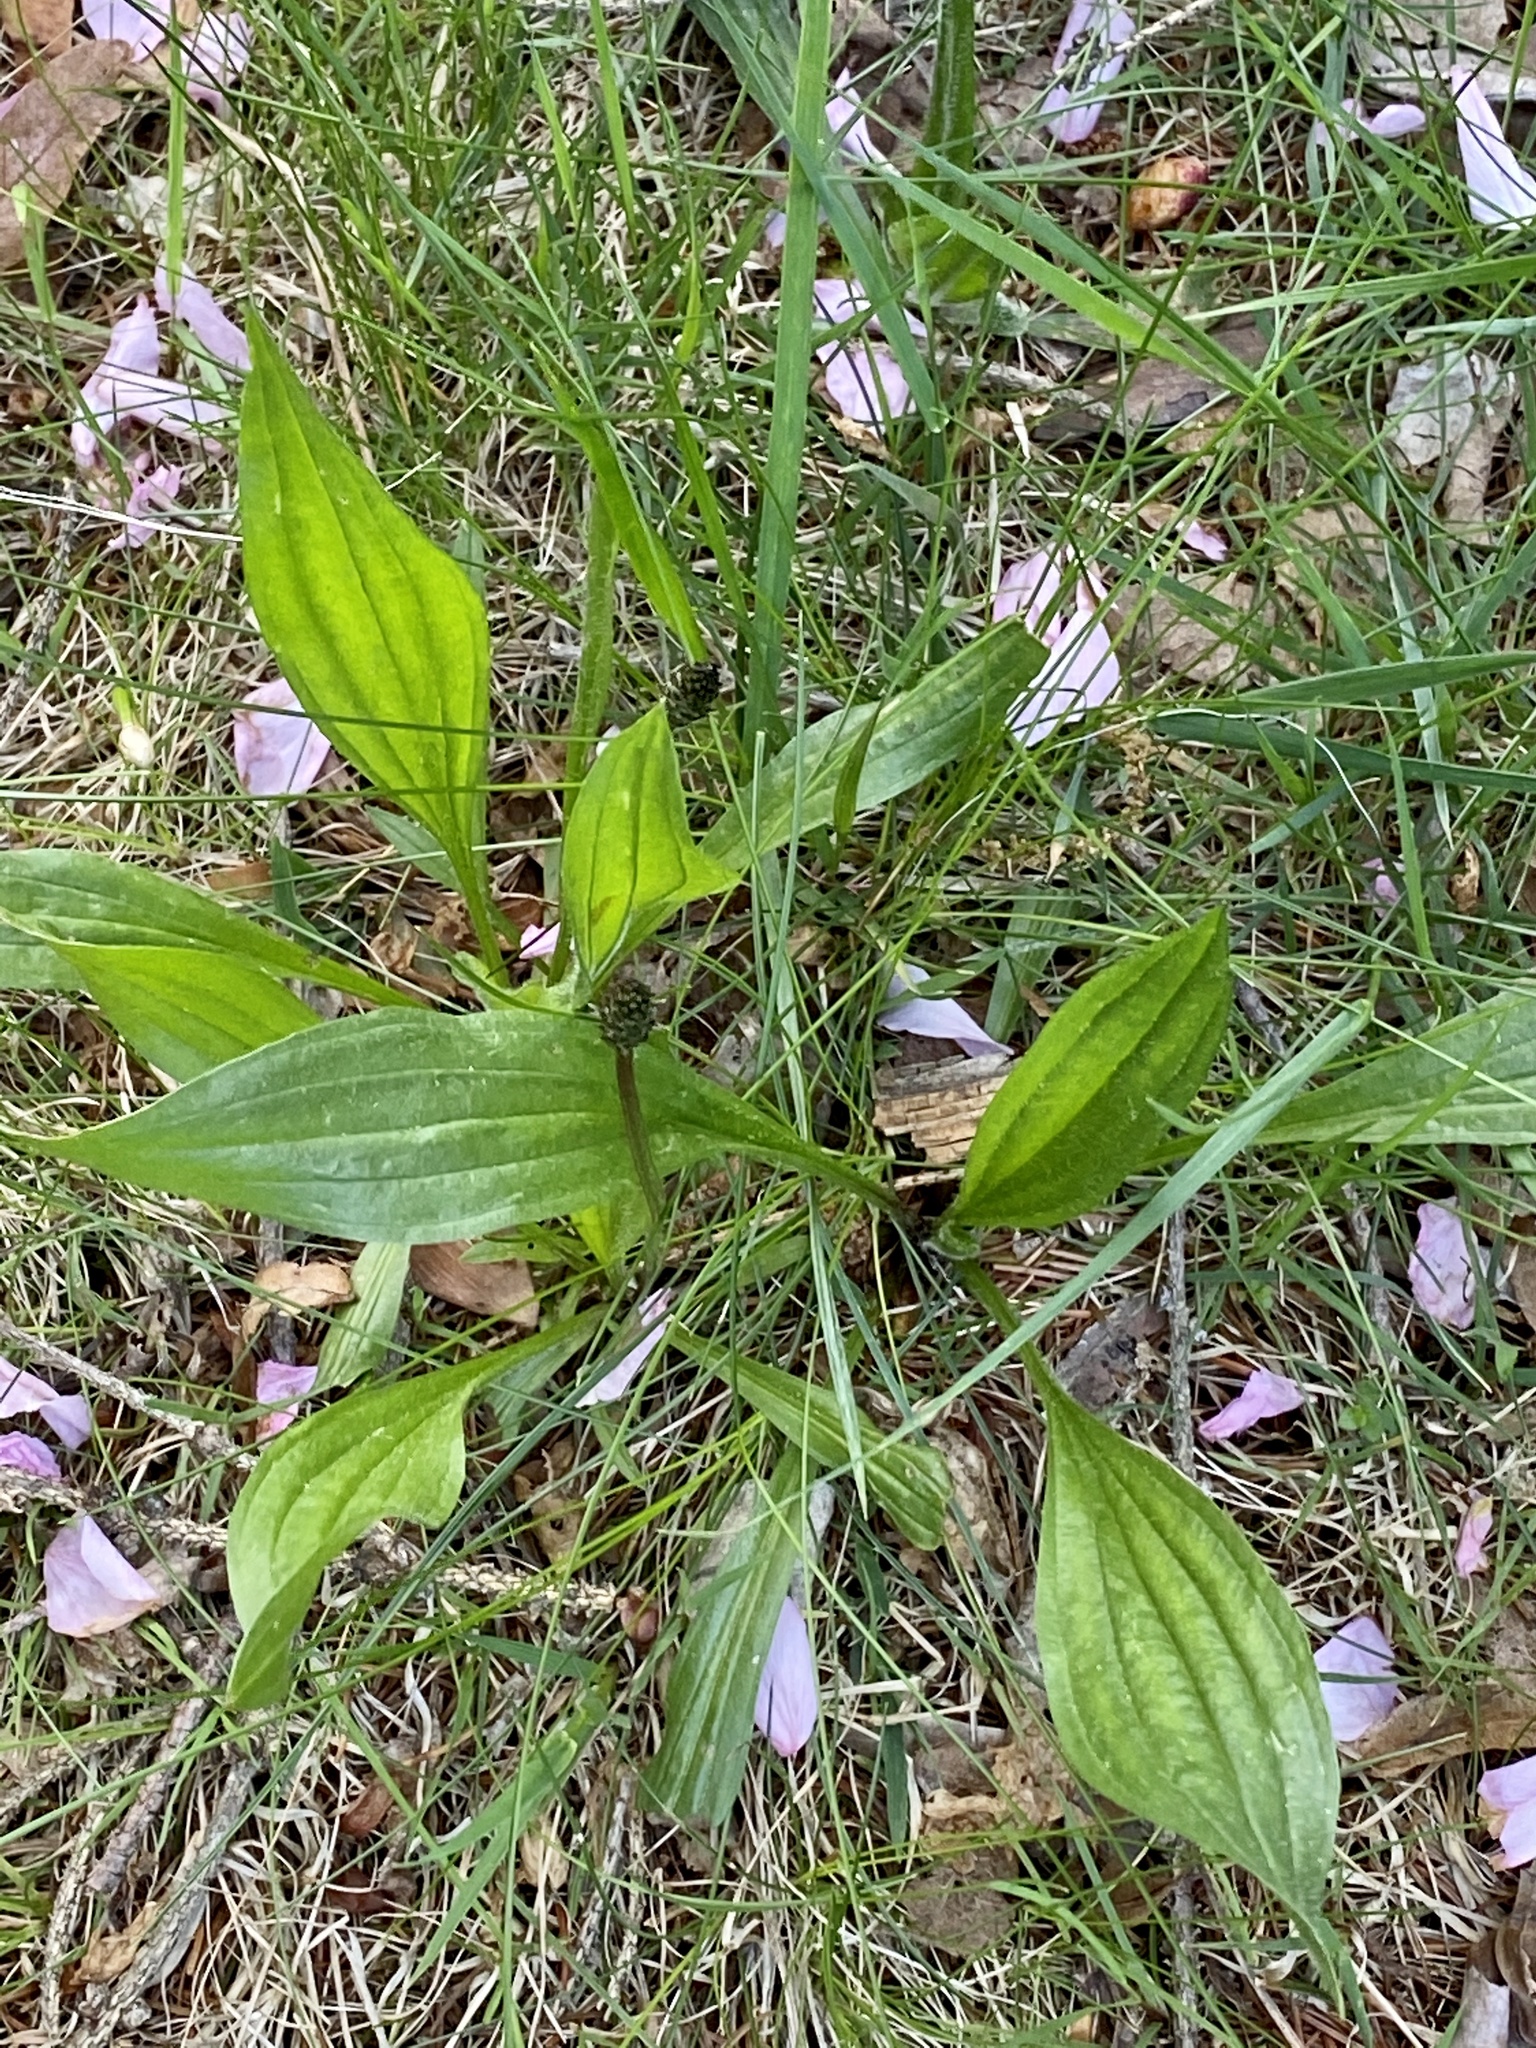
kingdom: Plantae
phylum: Tracheophyta
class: Magnoliopsida
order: Lamiales
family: Plantaginaceae
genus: Plantago
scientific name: Plantago lanceolata
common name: Ribwort plantain
